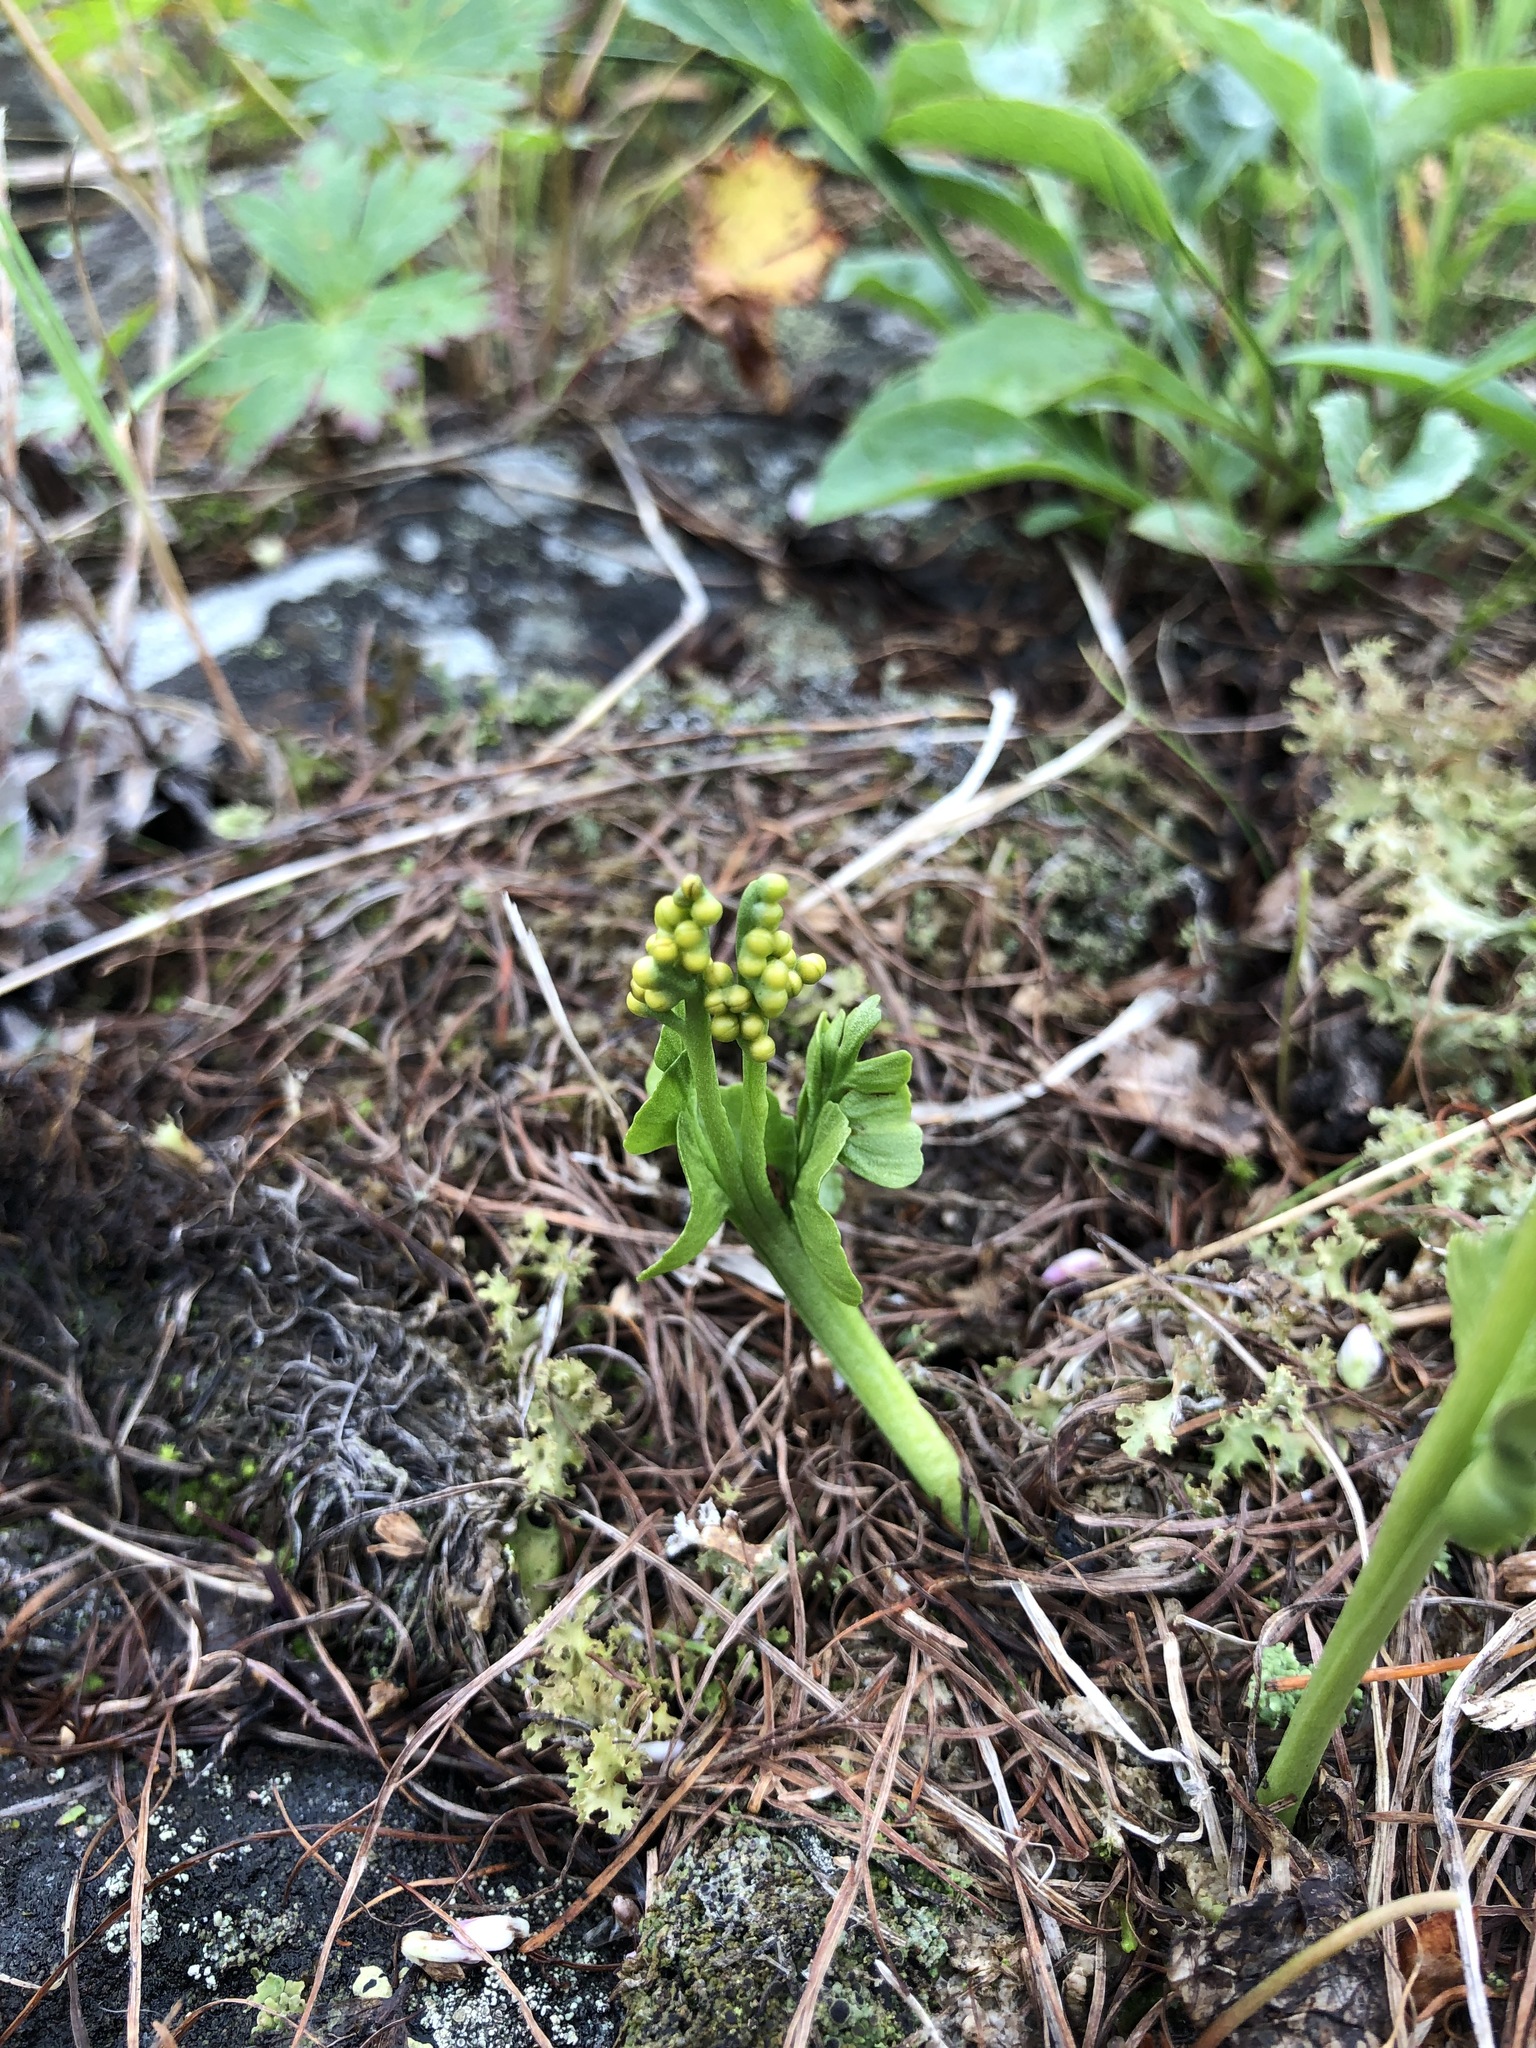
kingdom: Plantae
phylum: Tracheophyta
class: Polypodiopsida
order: Ophioglossales
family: Ophioglossaceae
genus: Botrychium
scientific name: Botrychium lunaria
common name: Moonwort
